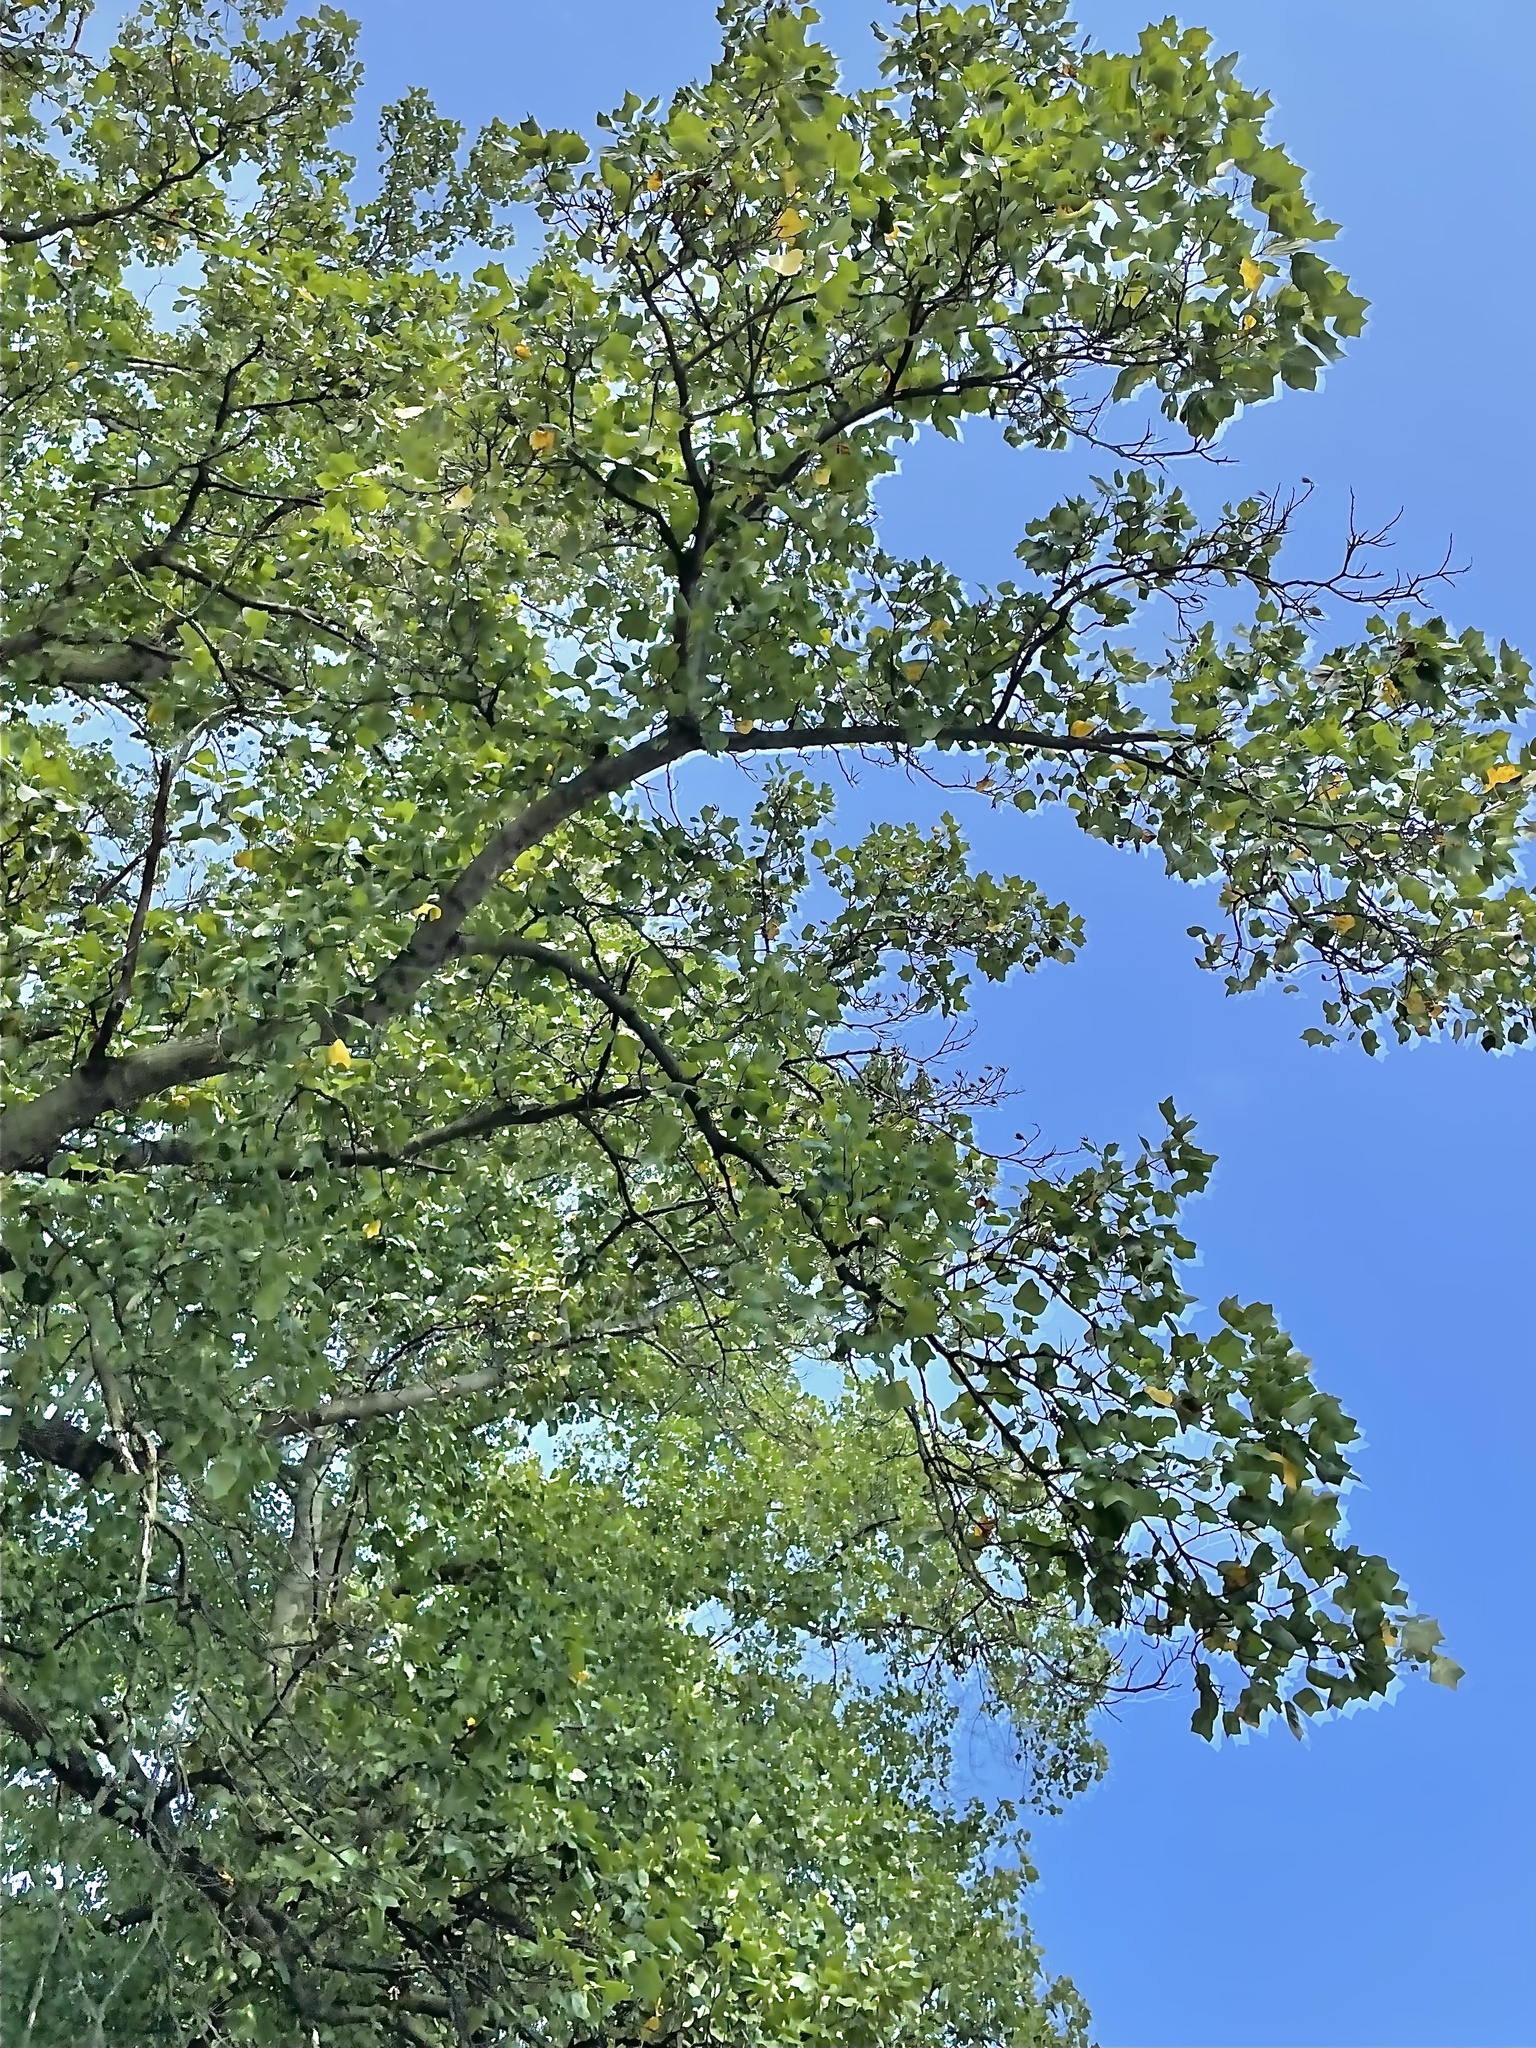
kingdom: Plantae
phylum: Tracheophyta
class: Magnoliopsida
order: Magnoliales
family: Magnoliaceae
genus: Liriodendron
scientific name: Liriodendron tulipifera
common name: Tulip tree
